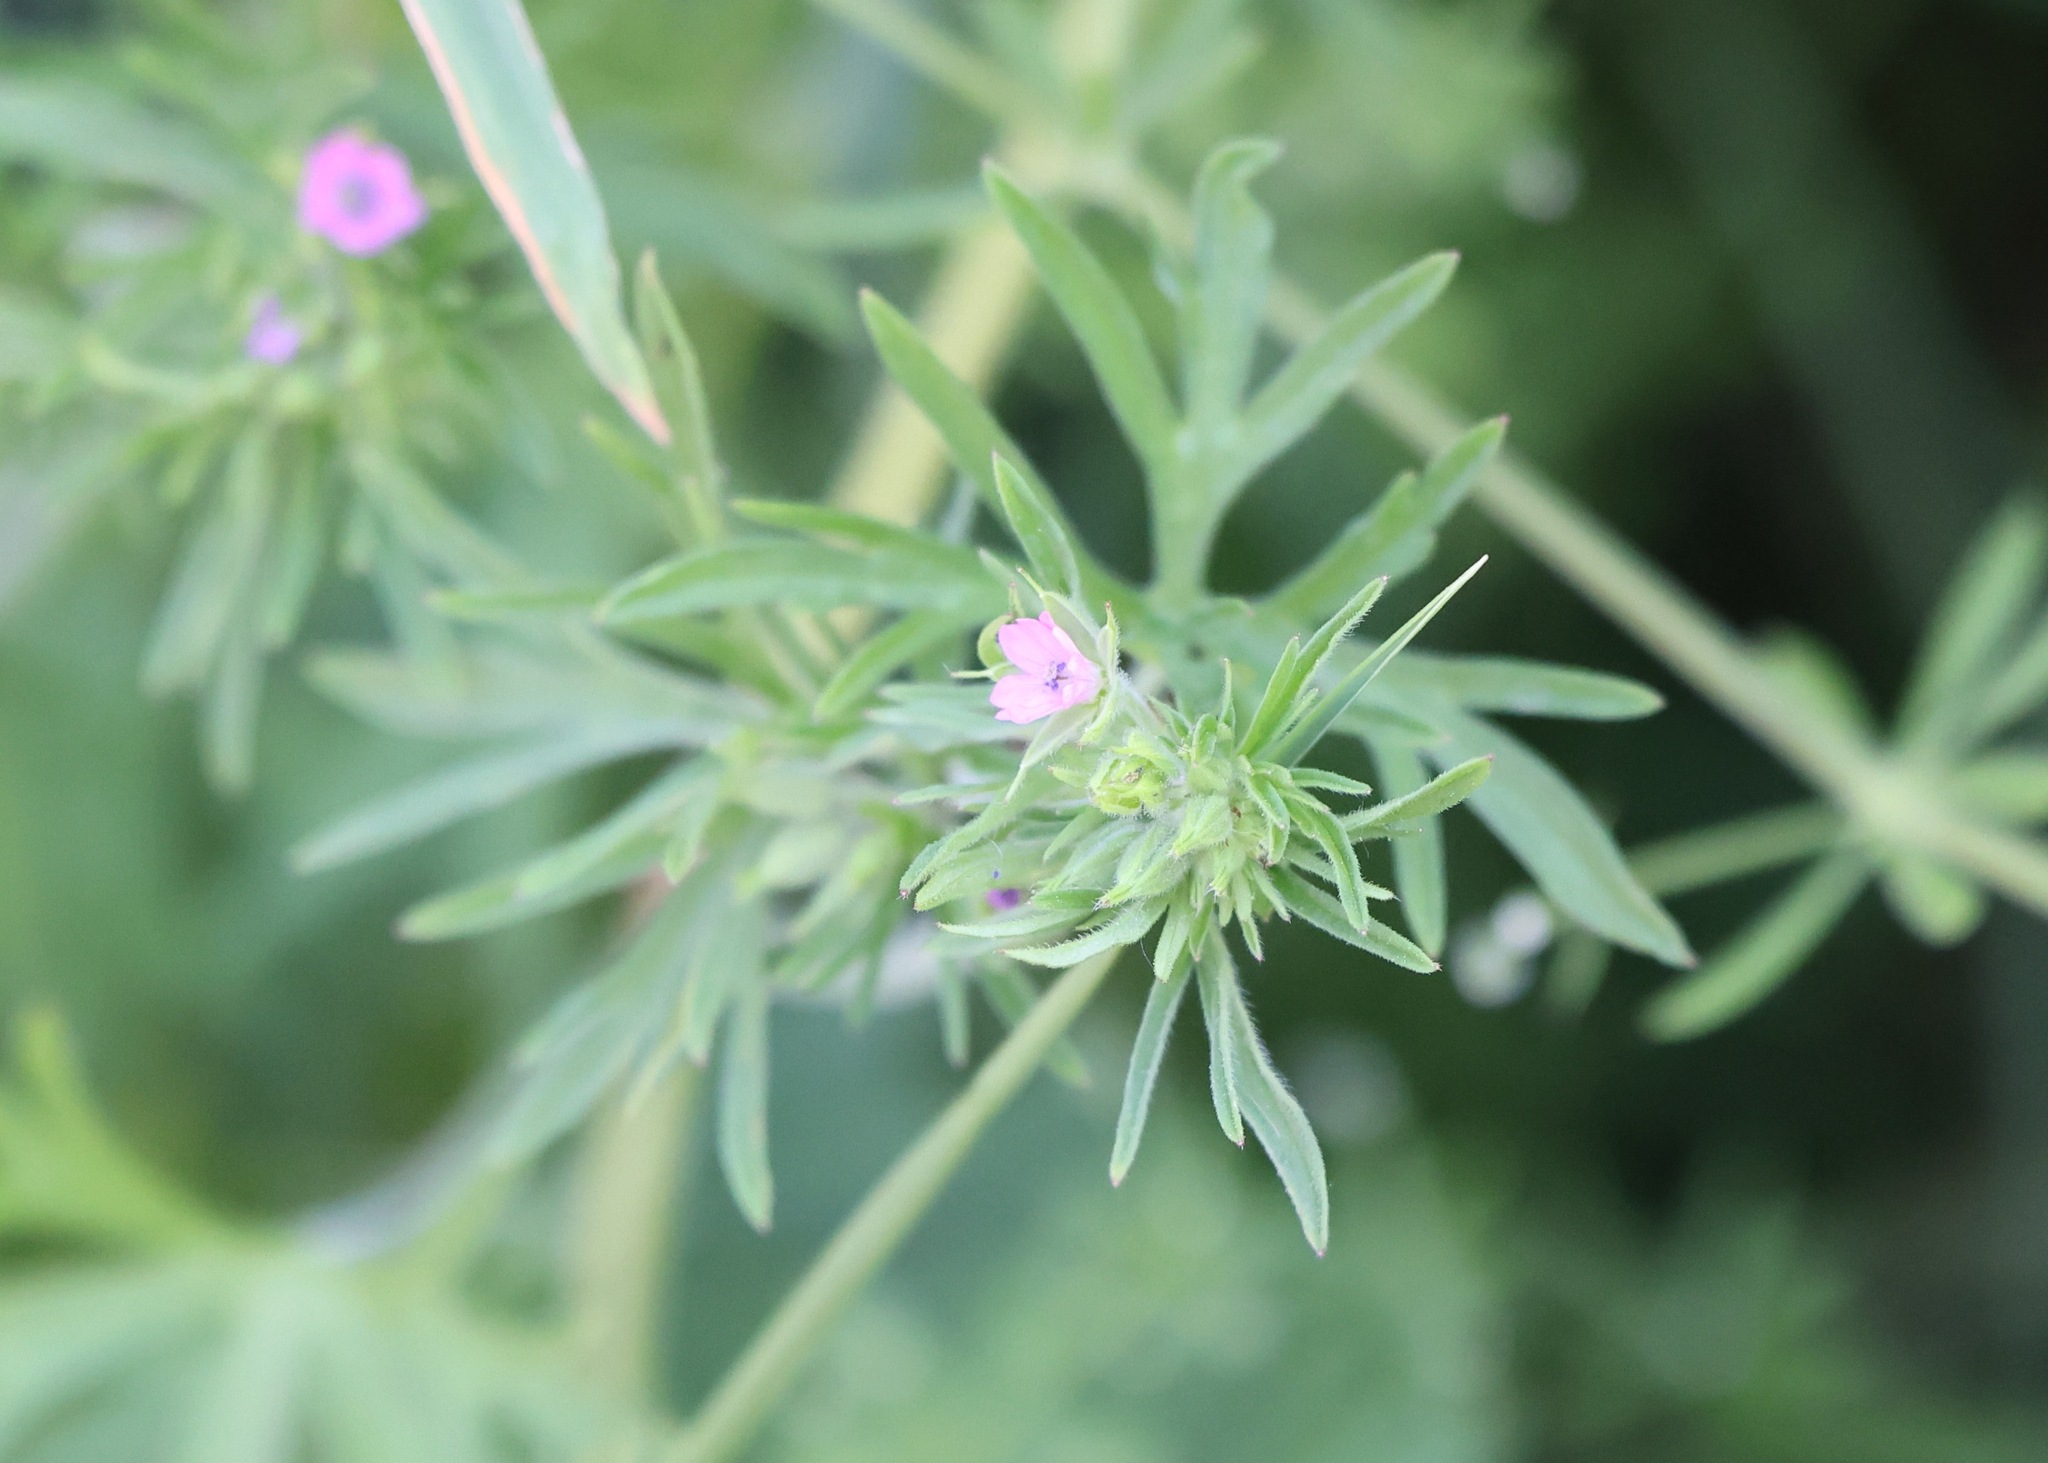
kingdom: Plantae
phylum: Tracheophyta
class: Magnoliopsida
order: Geraniales
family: Geraniaceae
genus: Geranium
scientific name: Geranium dissectum
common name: Cut-leaved crane's-bill
